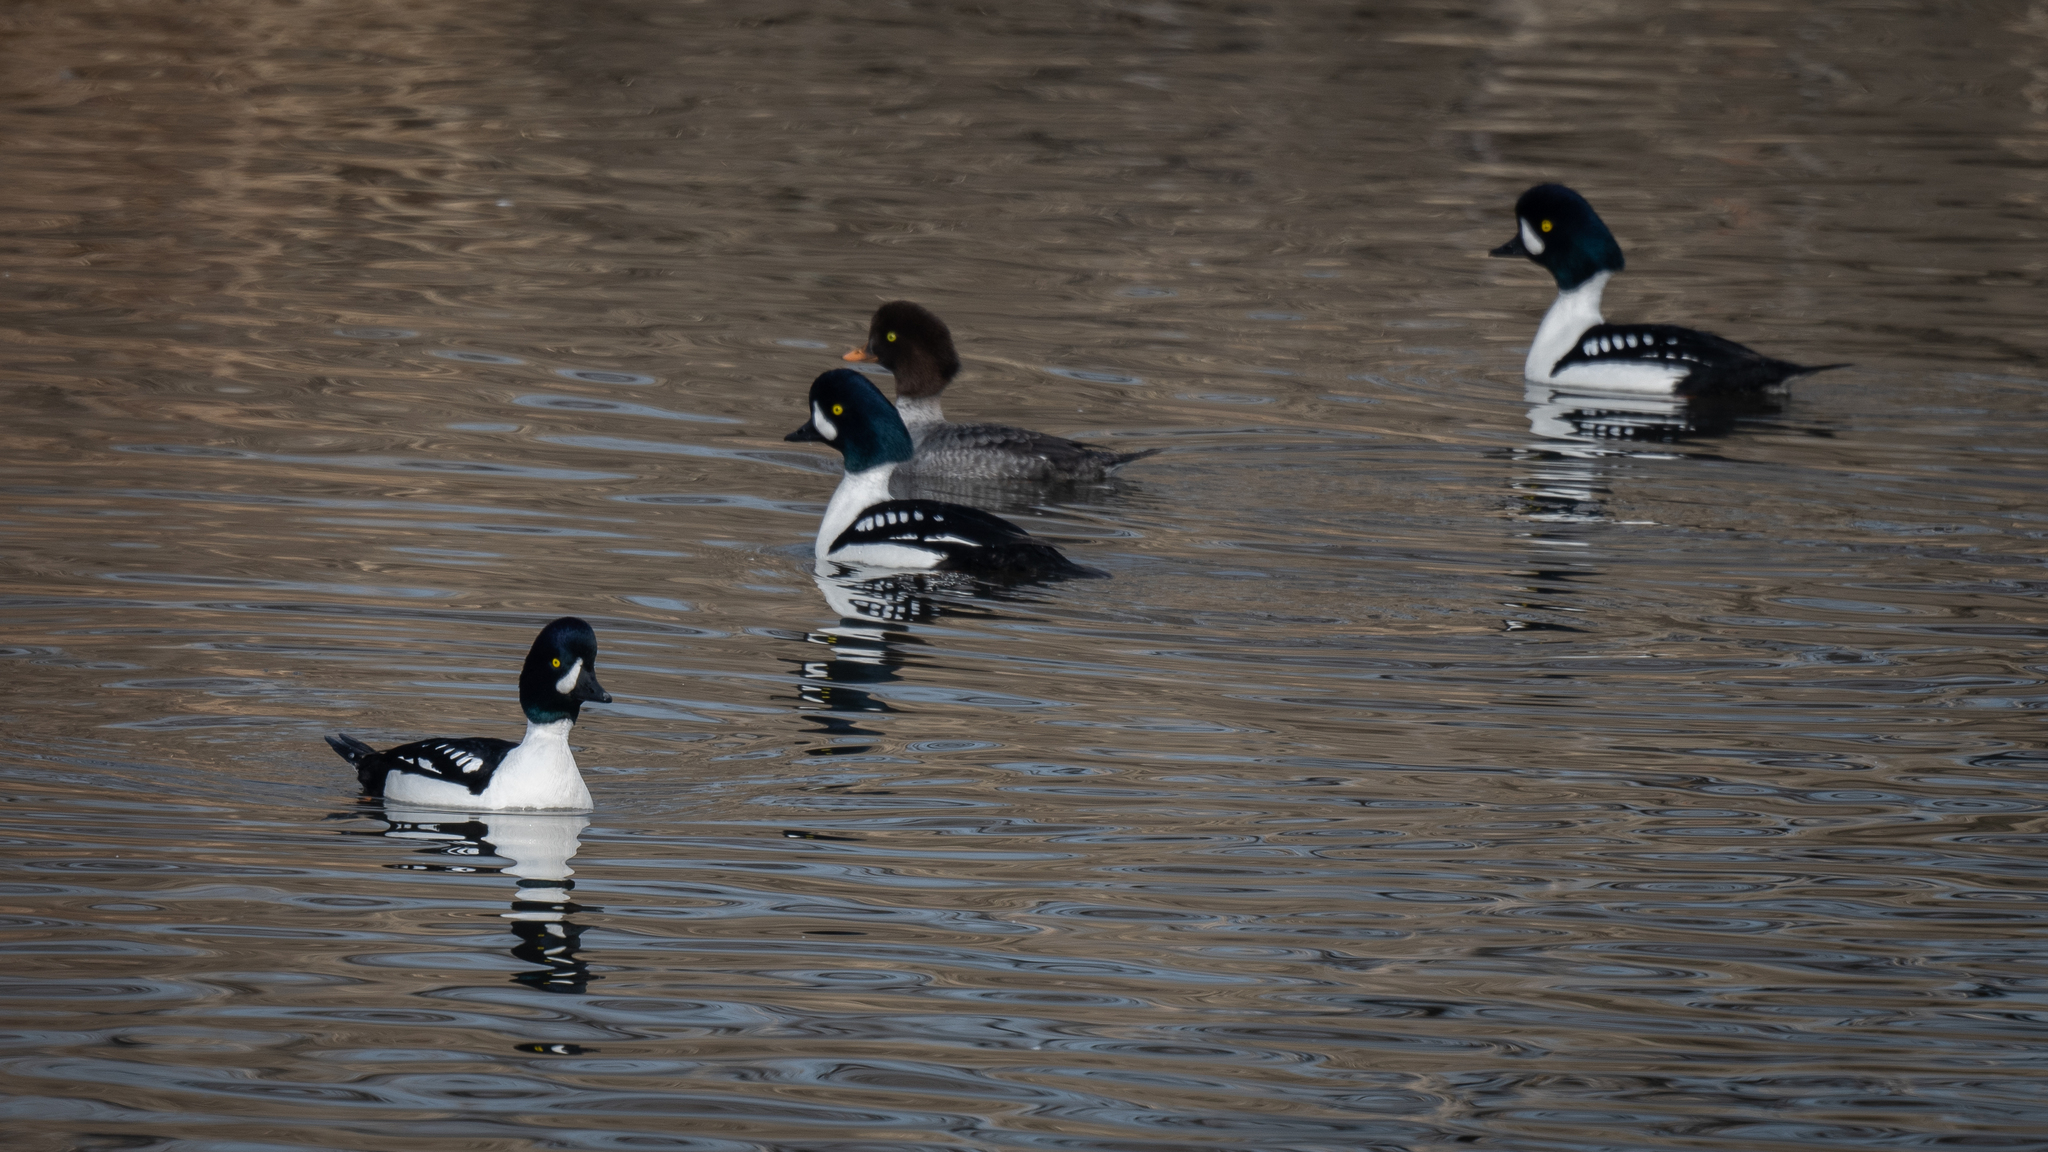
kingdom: Animalia
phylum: Chordata
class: Aves
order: Anseriformes
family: Anatidae
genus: Bucephala
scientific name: Bucephala islandica
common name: Barrow's goldeneye
